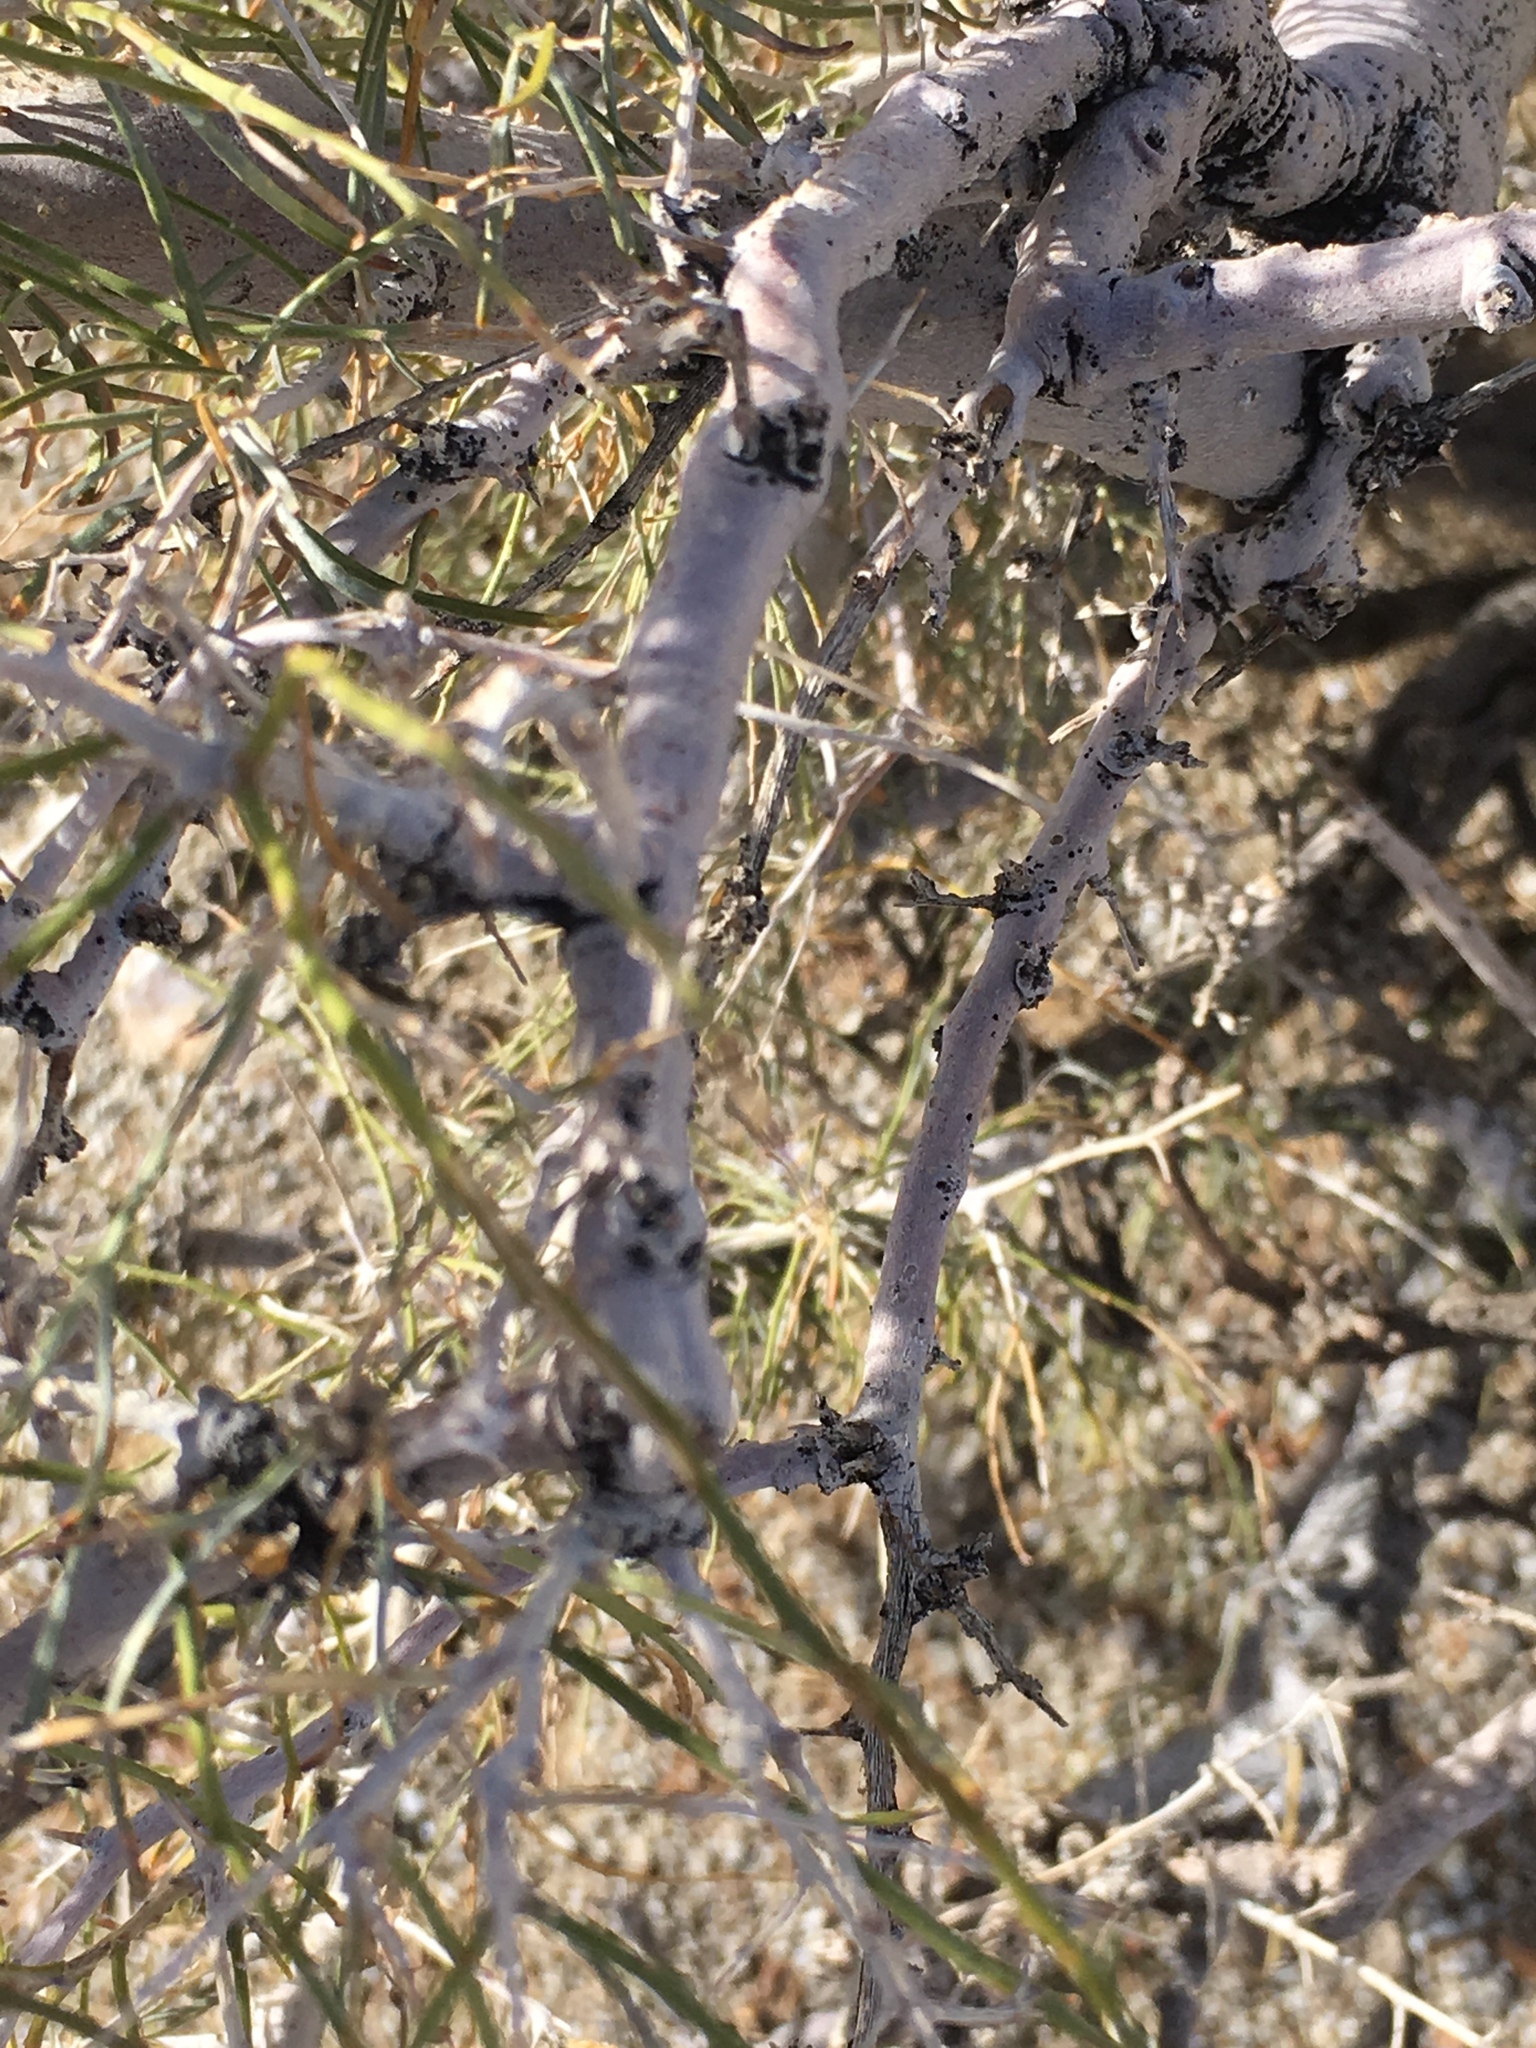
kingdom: Plantae
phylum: Tracheophyta
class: Magnoliopsida
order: Fabales
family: Fabaceae
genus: Psorothamnus
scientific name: Psorothamnus schottii
